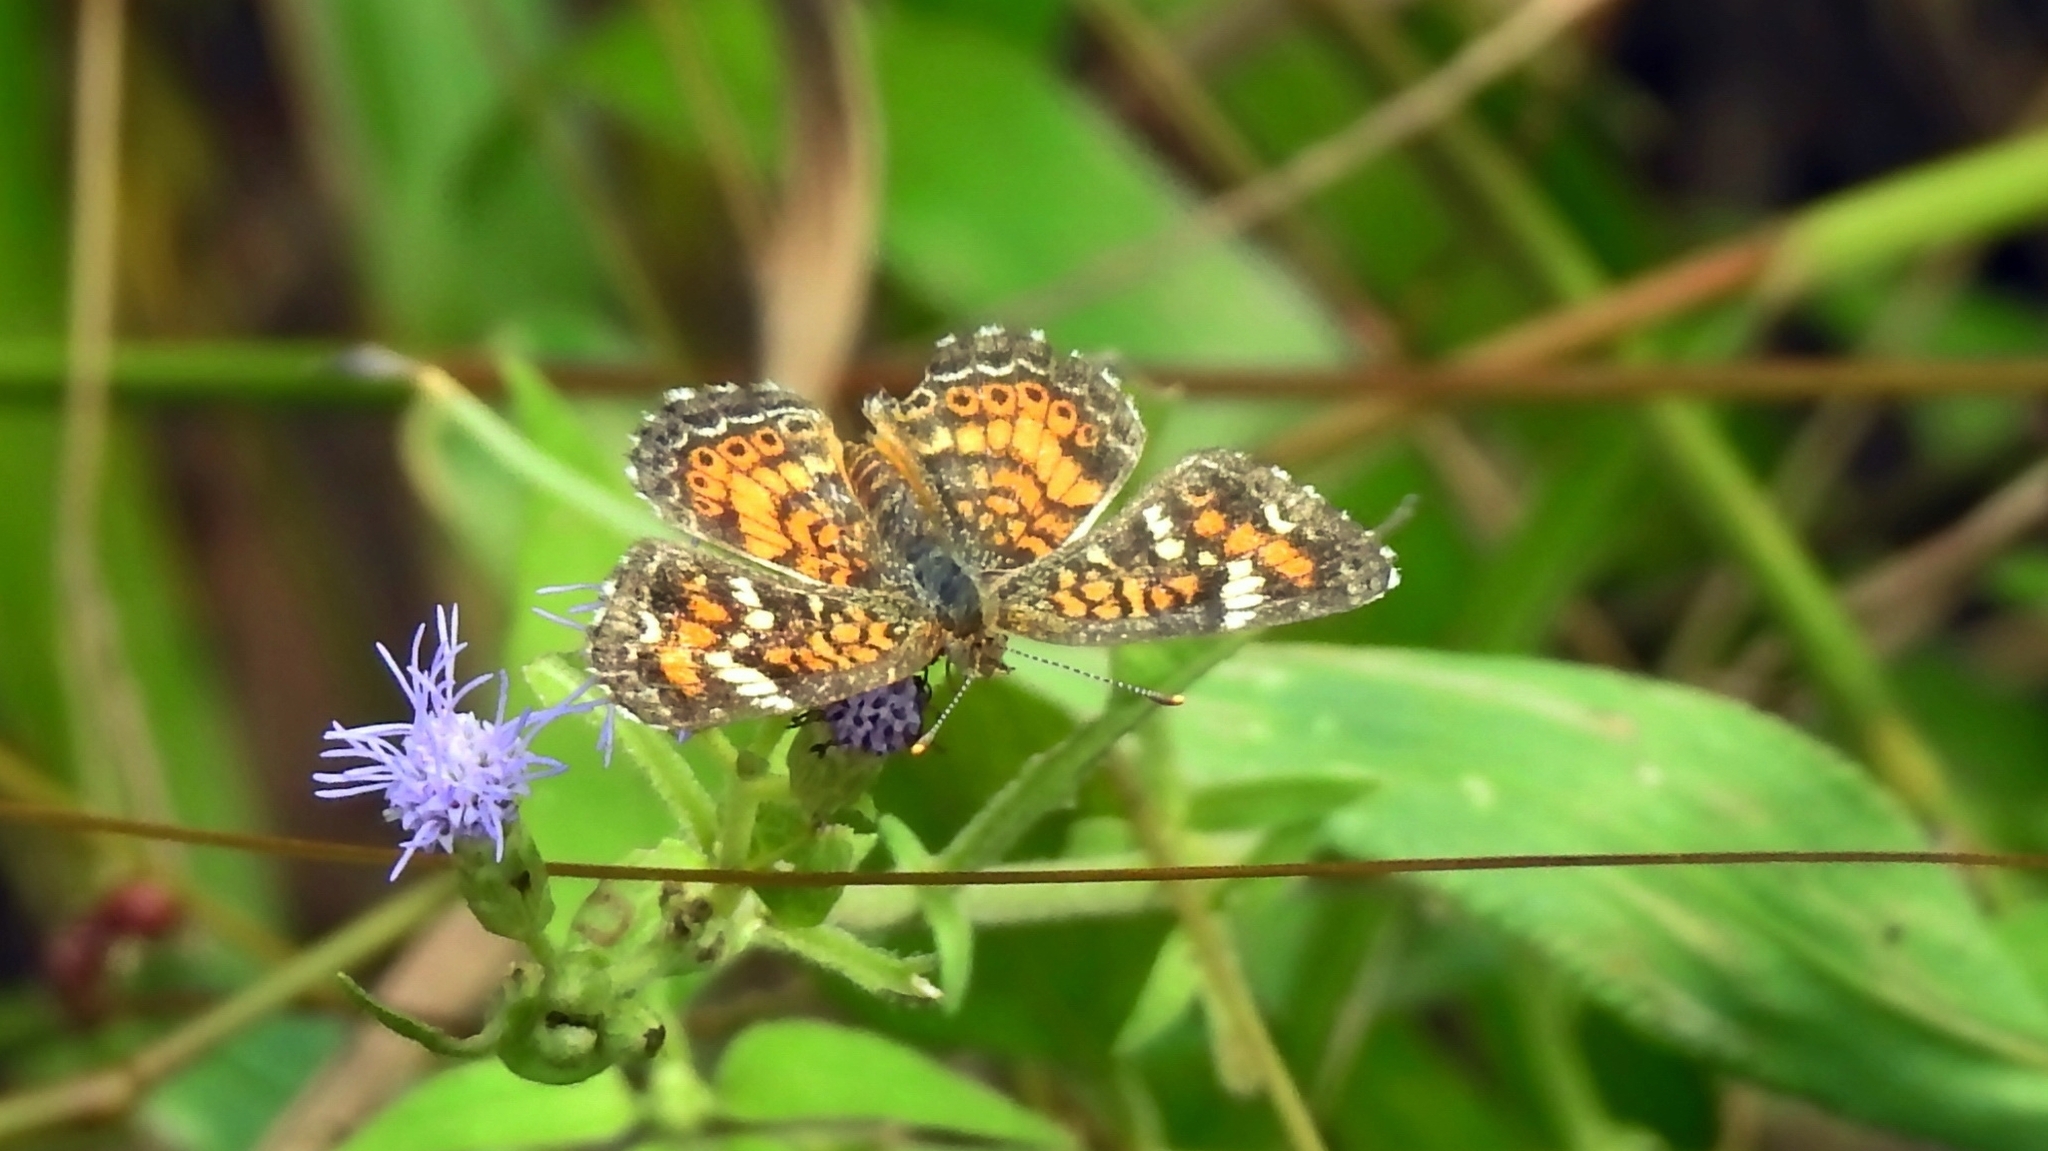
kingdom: Animalia
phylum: Arthropoda
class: Insecta
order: Lepidoptera
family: Nymphalidae
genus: Phyciodes
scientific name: Phyciodes phaon
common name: Phaon crescent
